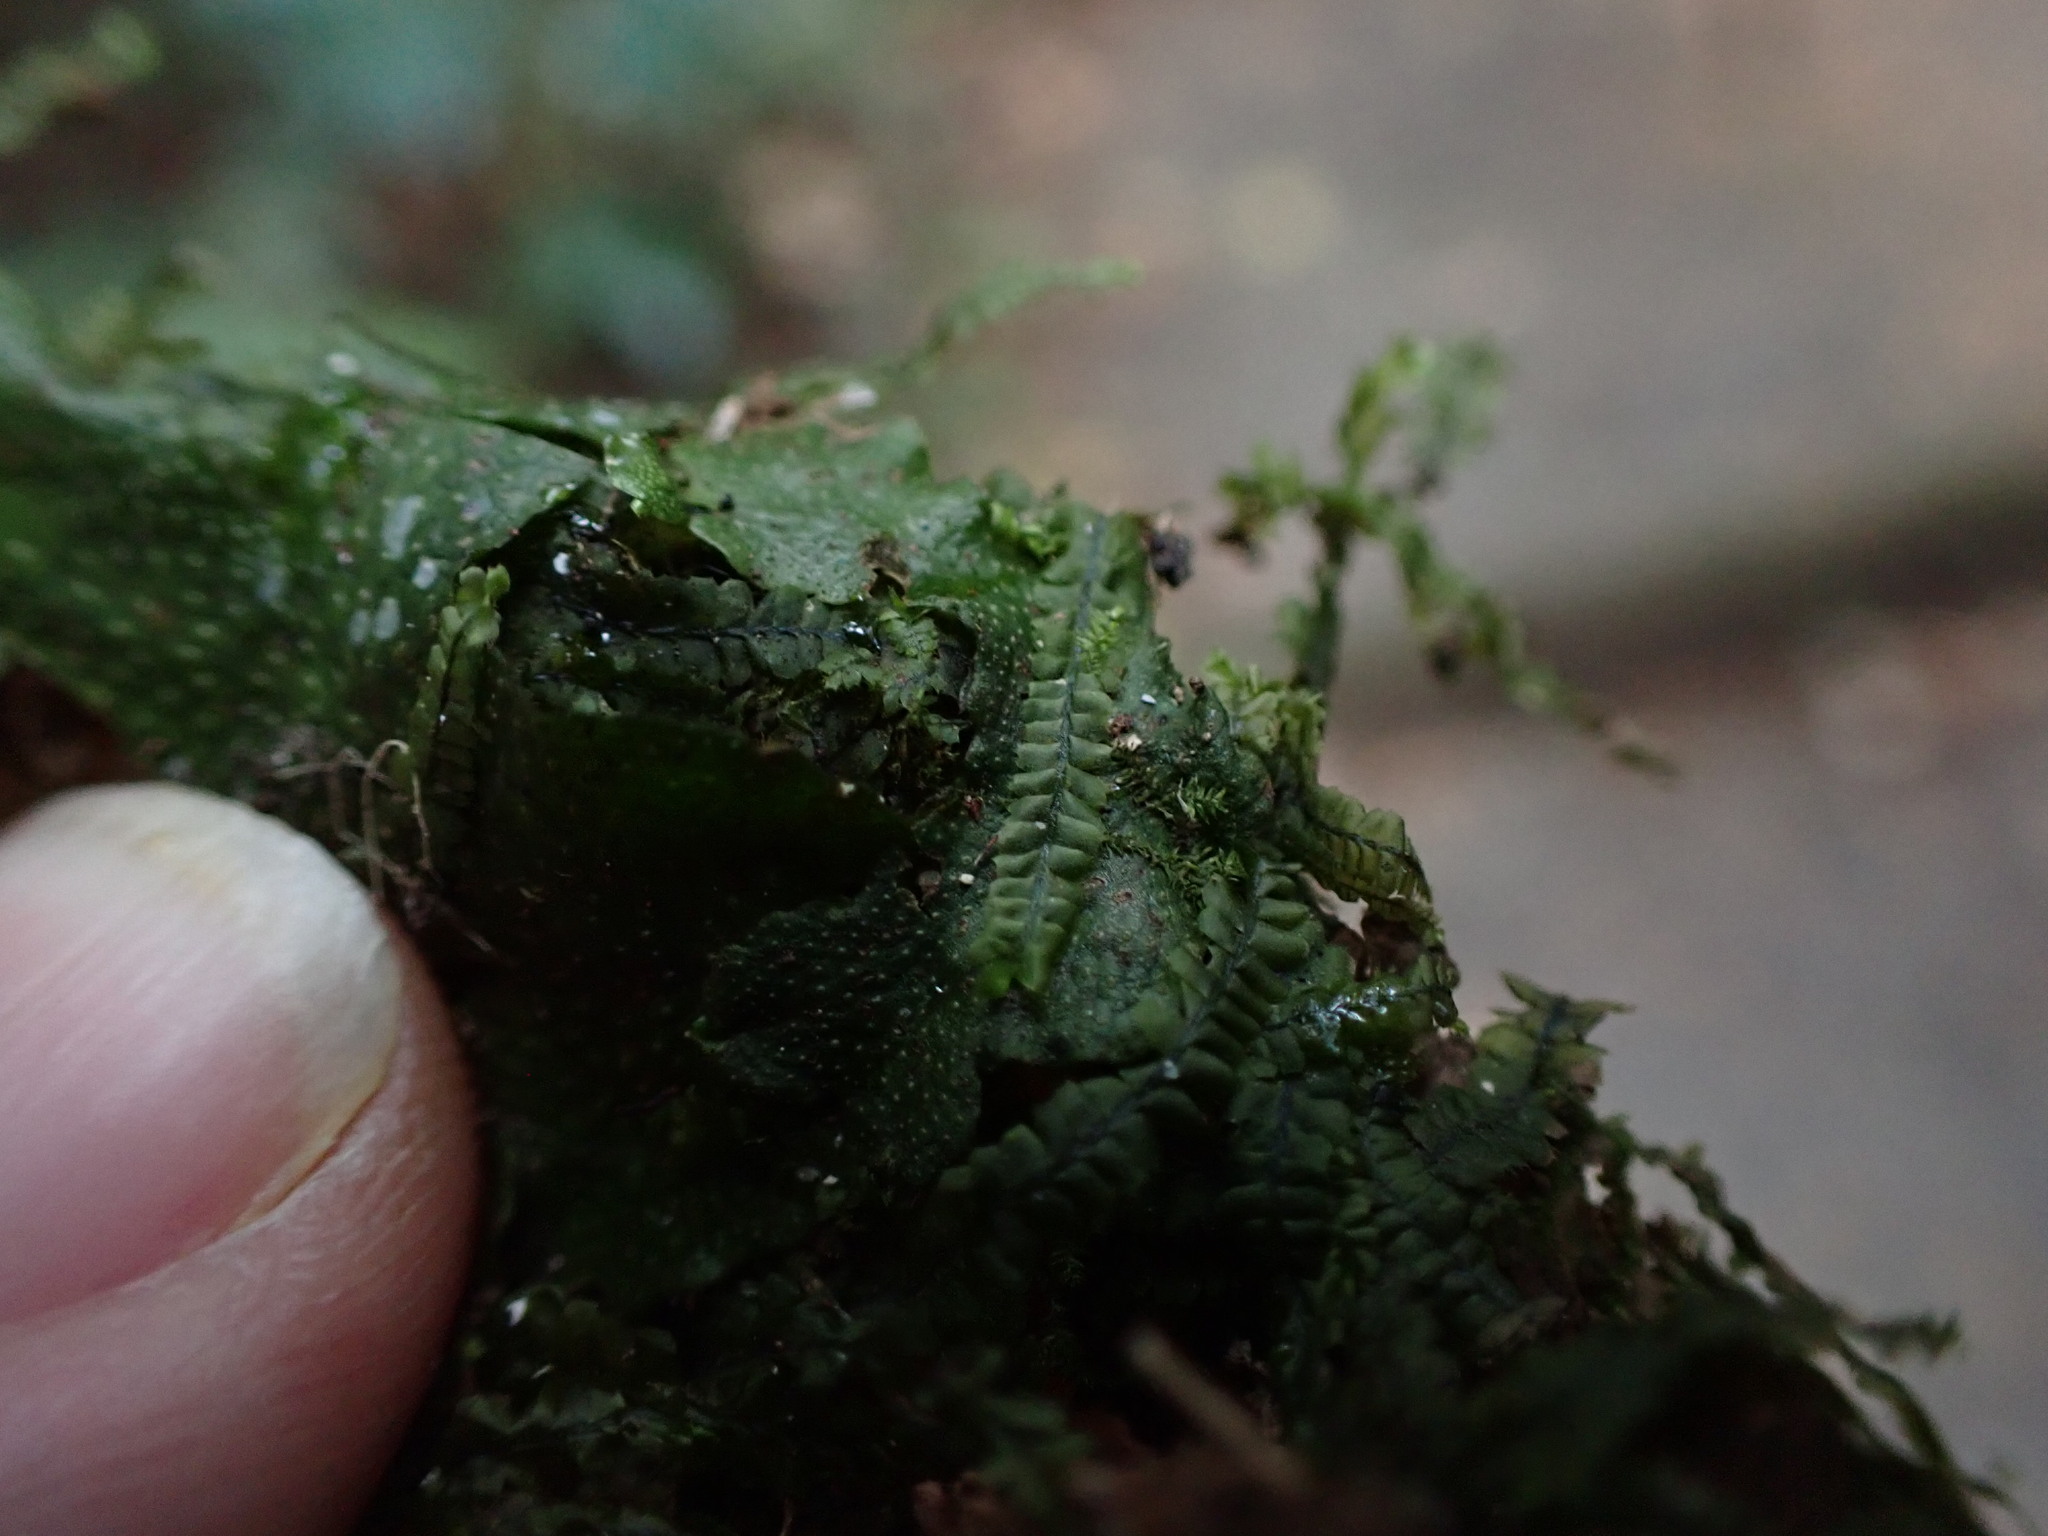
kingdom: Plantae
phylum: Marchantiophyta
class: Jungermanniopsida
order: Jungermanniales
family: Lophocoleaceae
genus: Heteroscyphus
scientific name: Heteroscyphus coalitus
